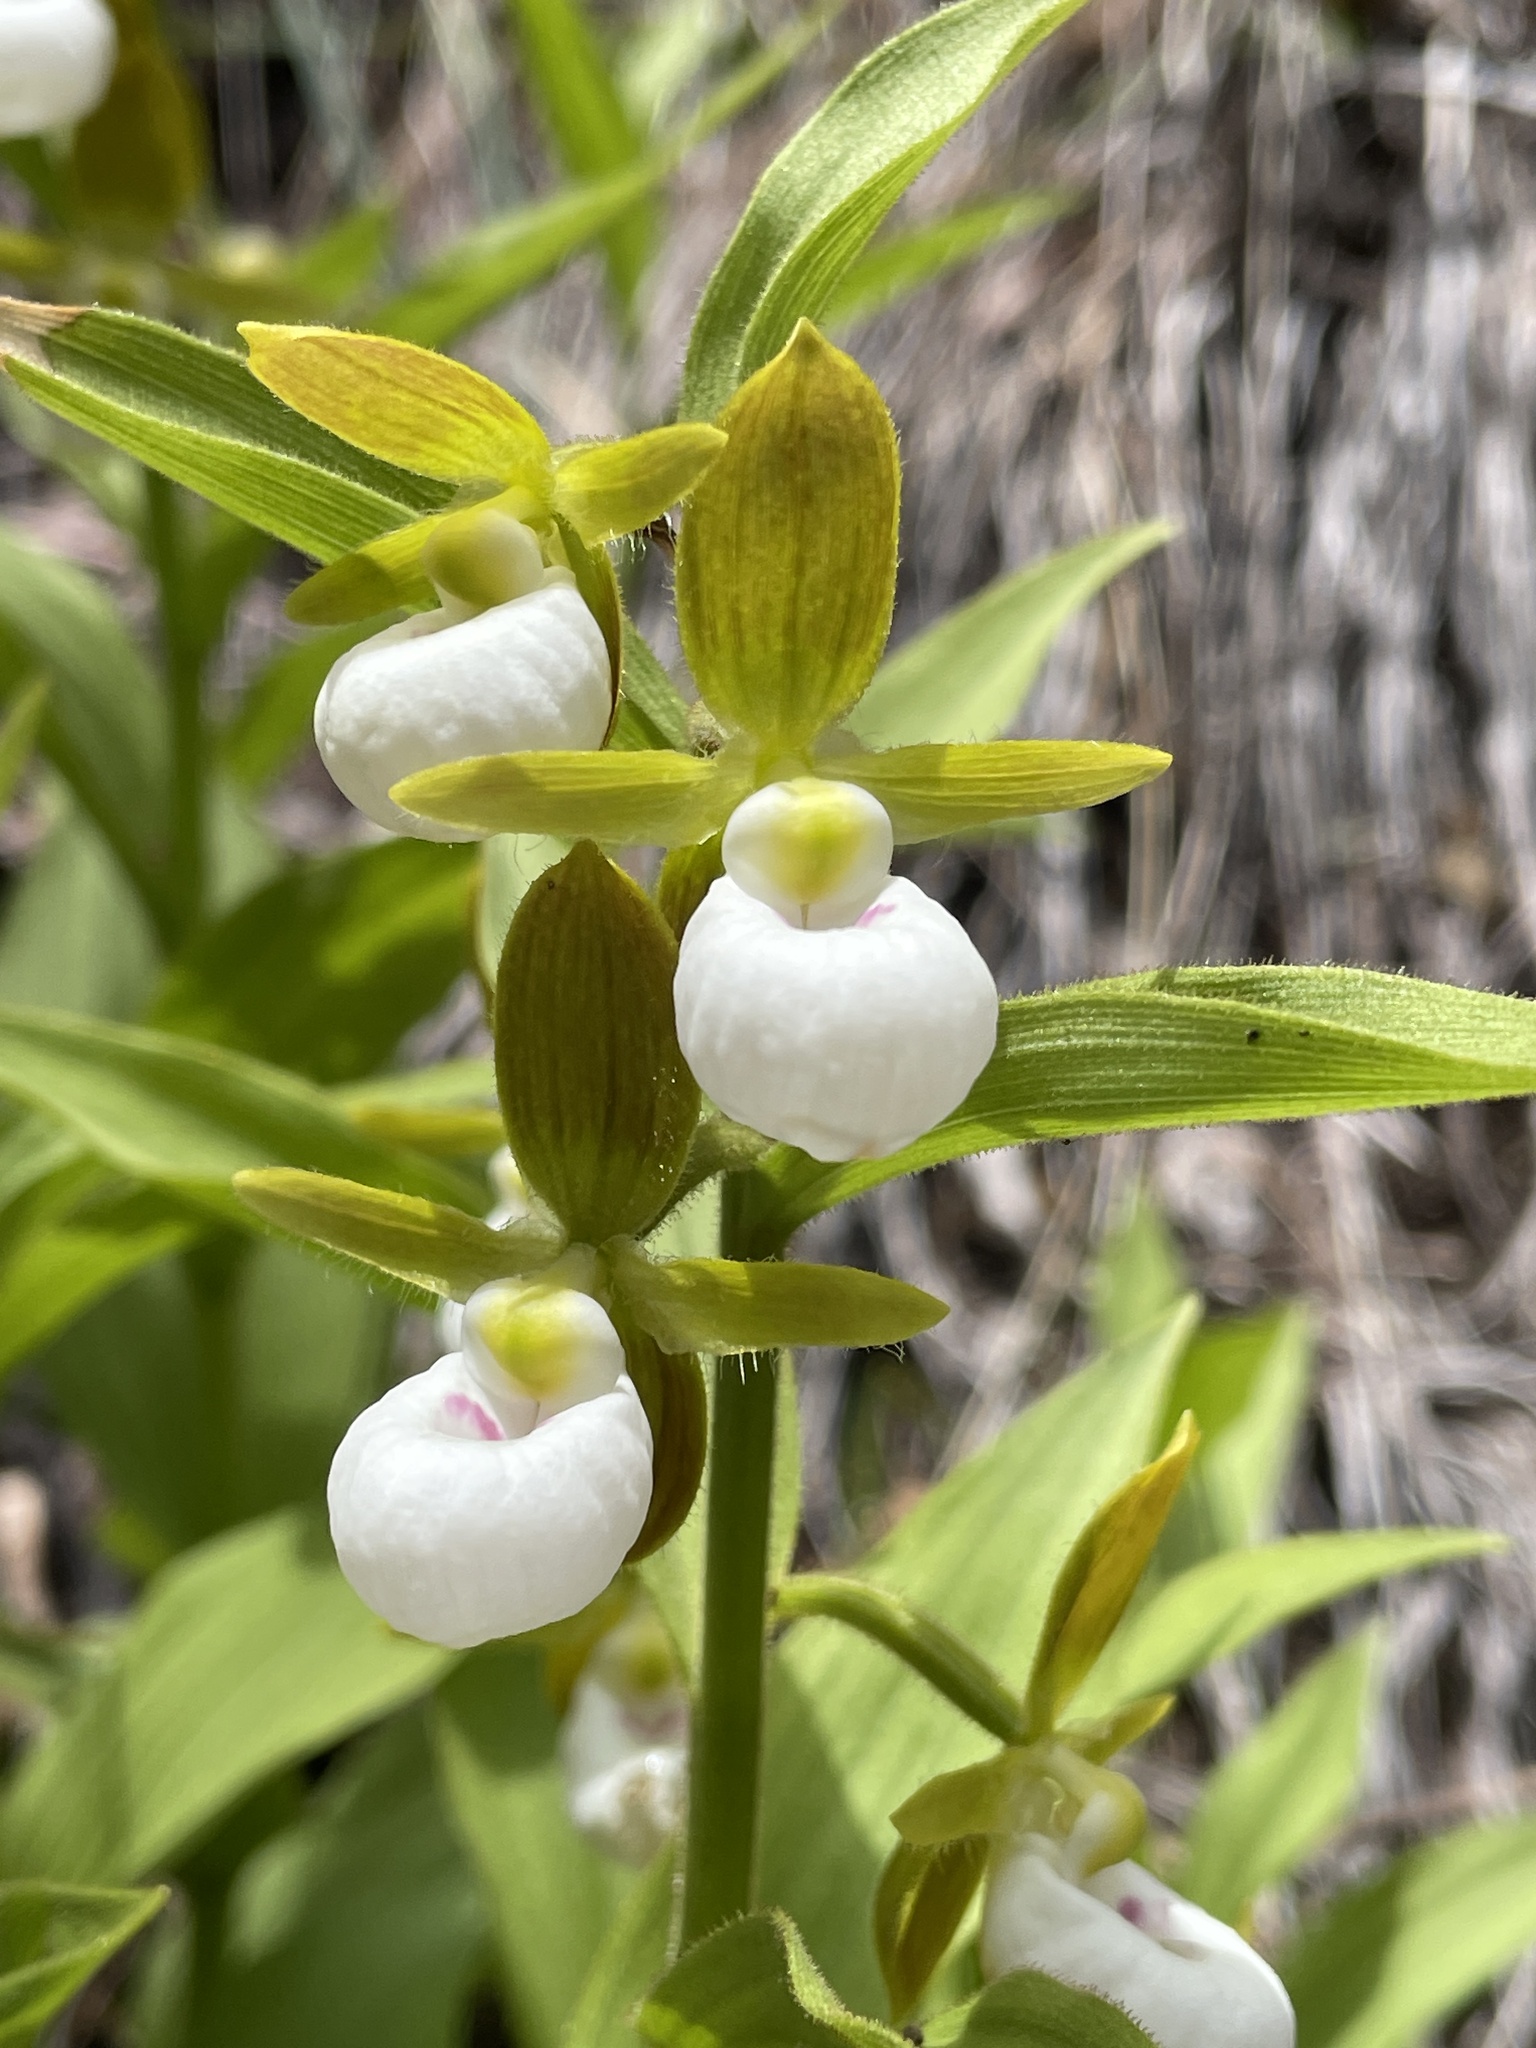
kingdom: Plantae
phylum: Tracheophyta
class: Liliopsida
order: Asparagales
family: Orchidaceae
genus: Cypripedium
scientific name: Cypripedium californicum
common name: California lady's slipper
